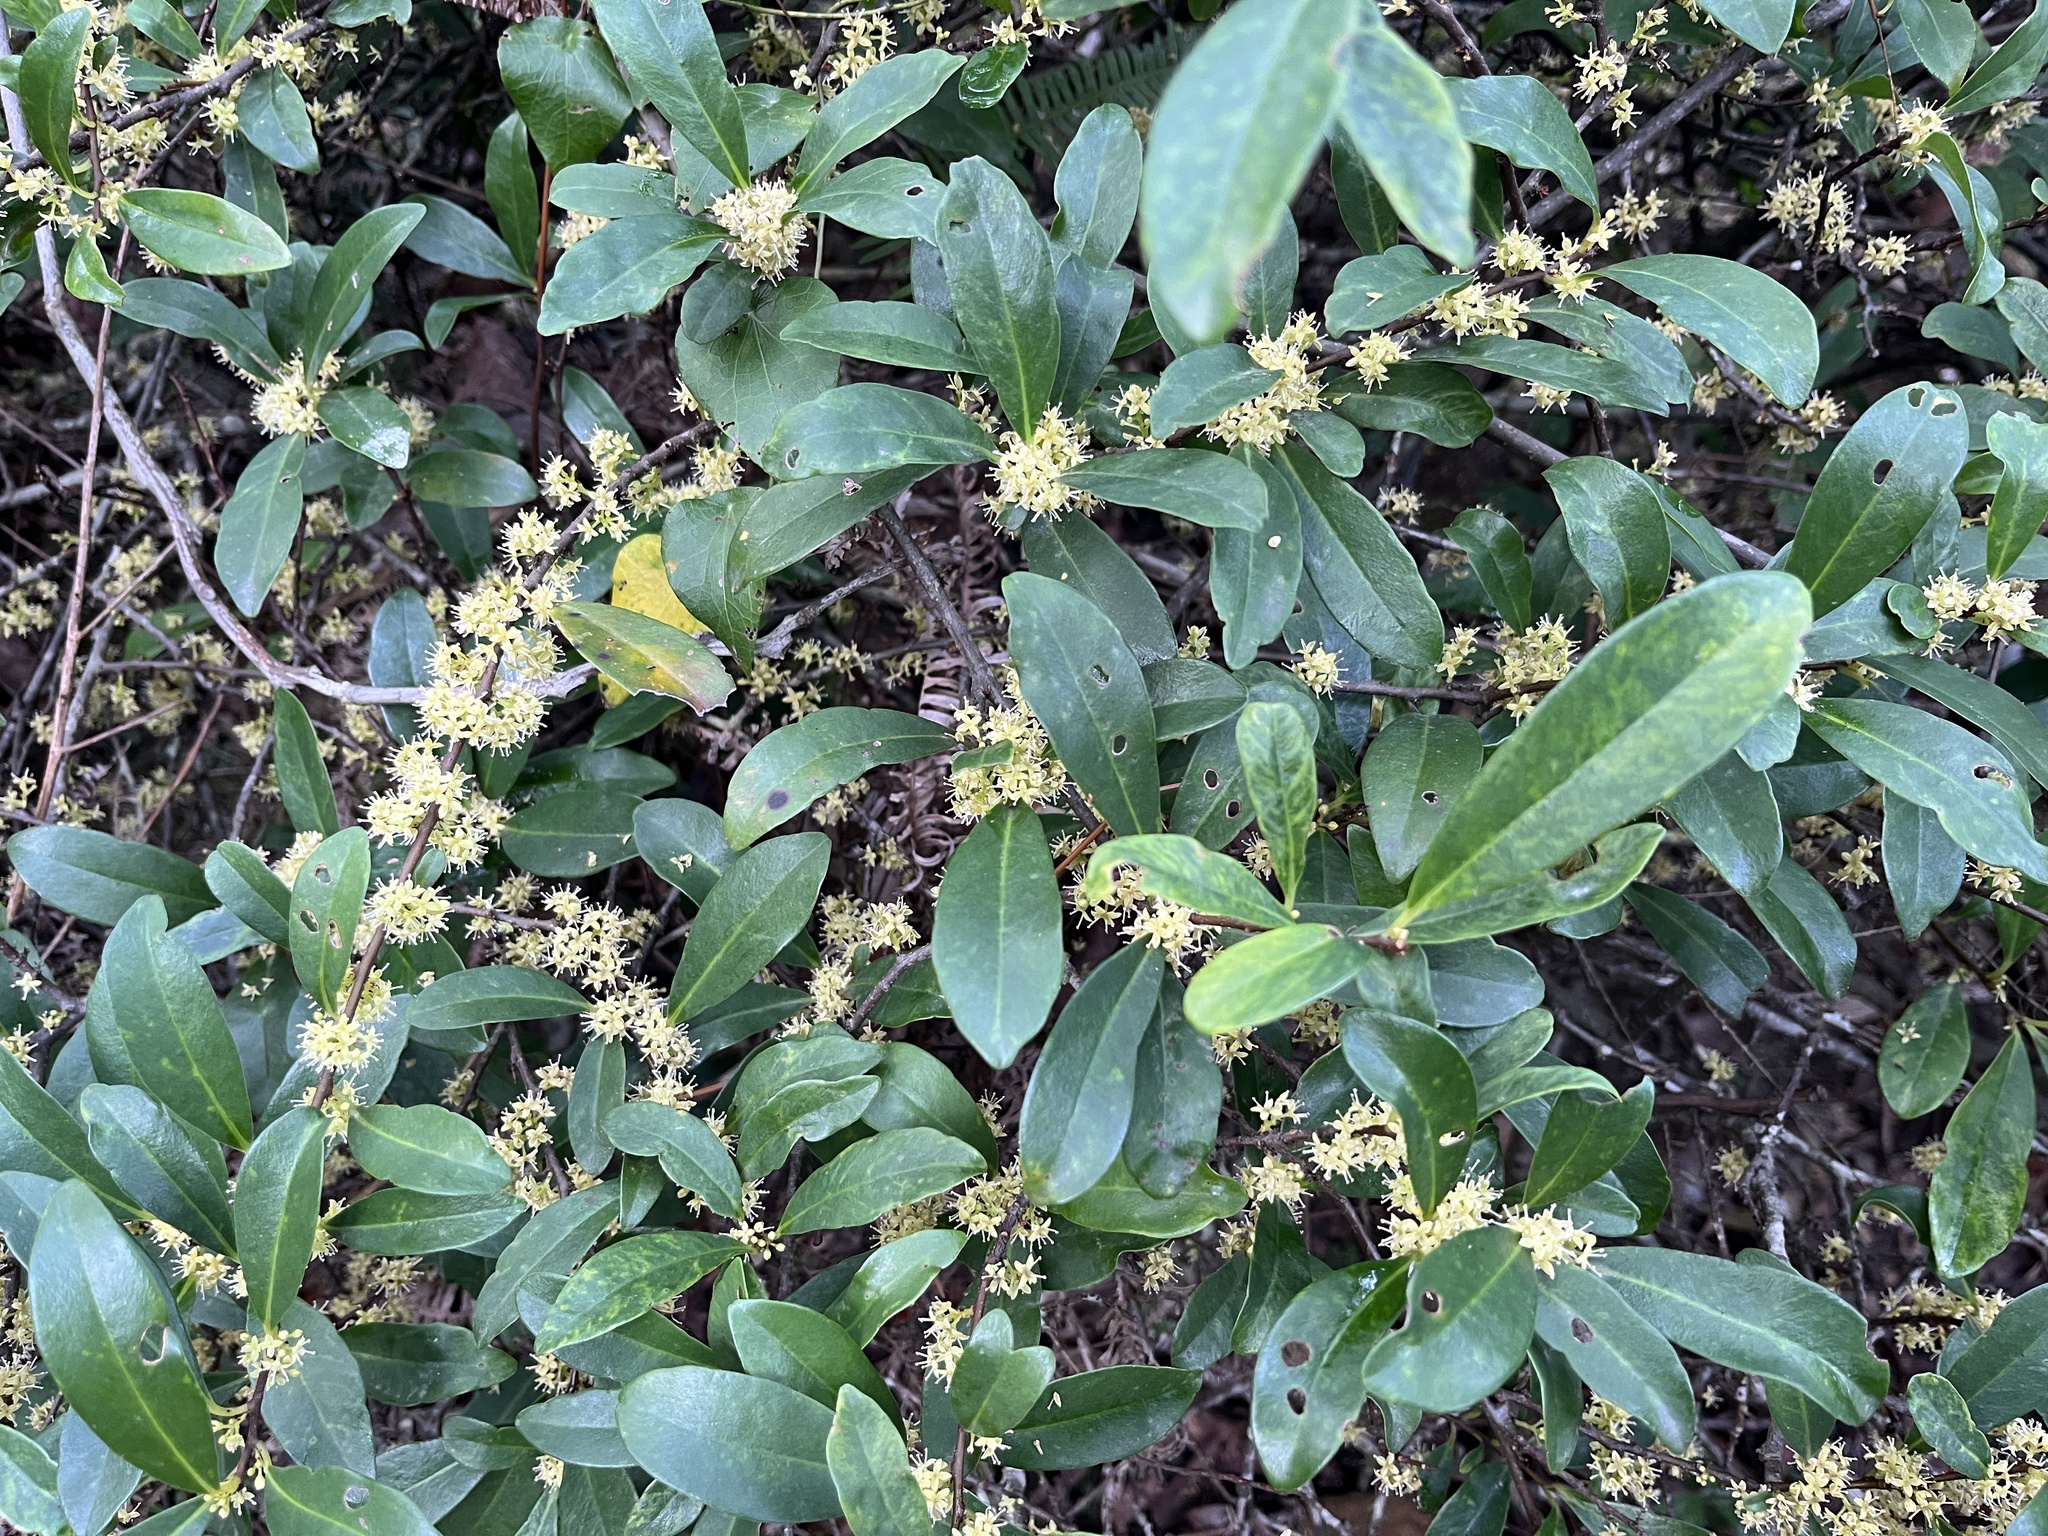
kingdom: Plantae
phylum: Tracheophyta
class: Magnoliopsida
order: Ericales
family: Primulaceae
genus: Embelia
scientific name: Embelia laeta
